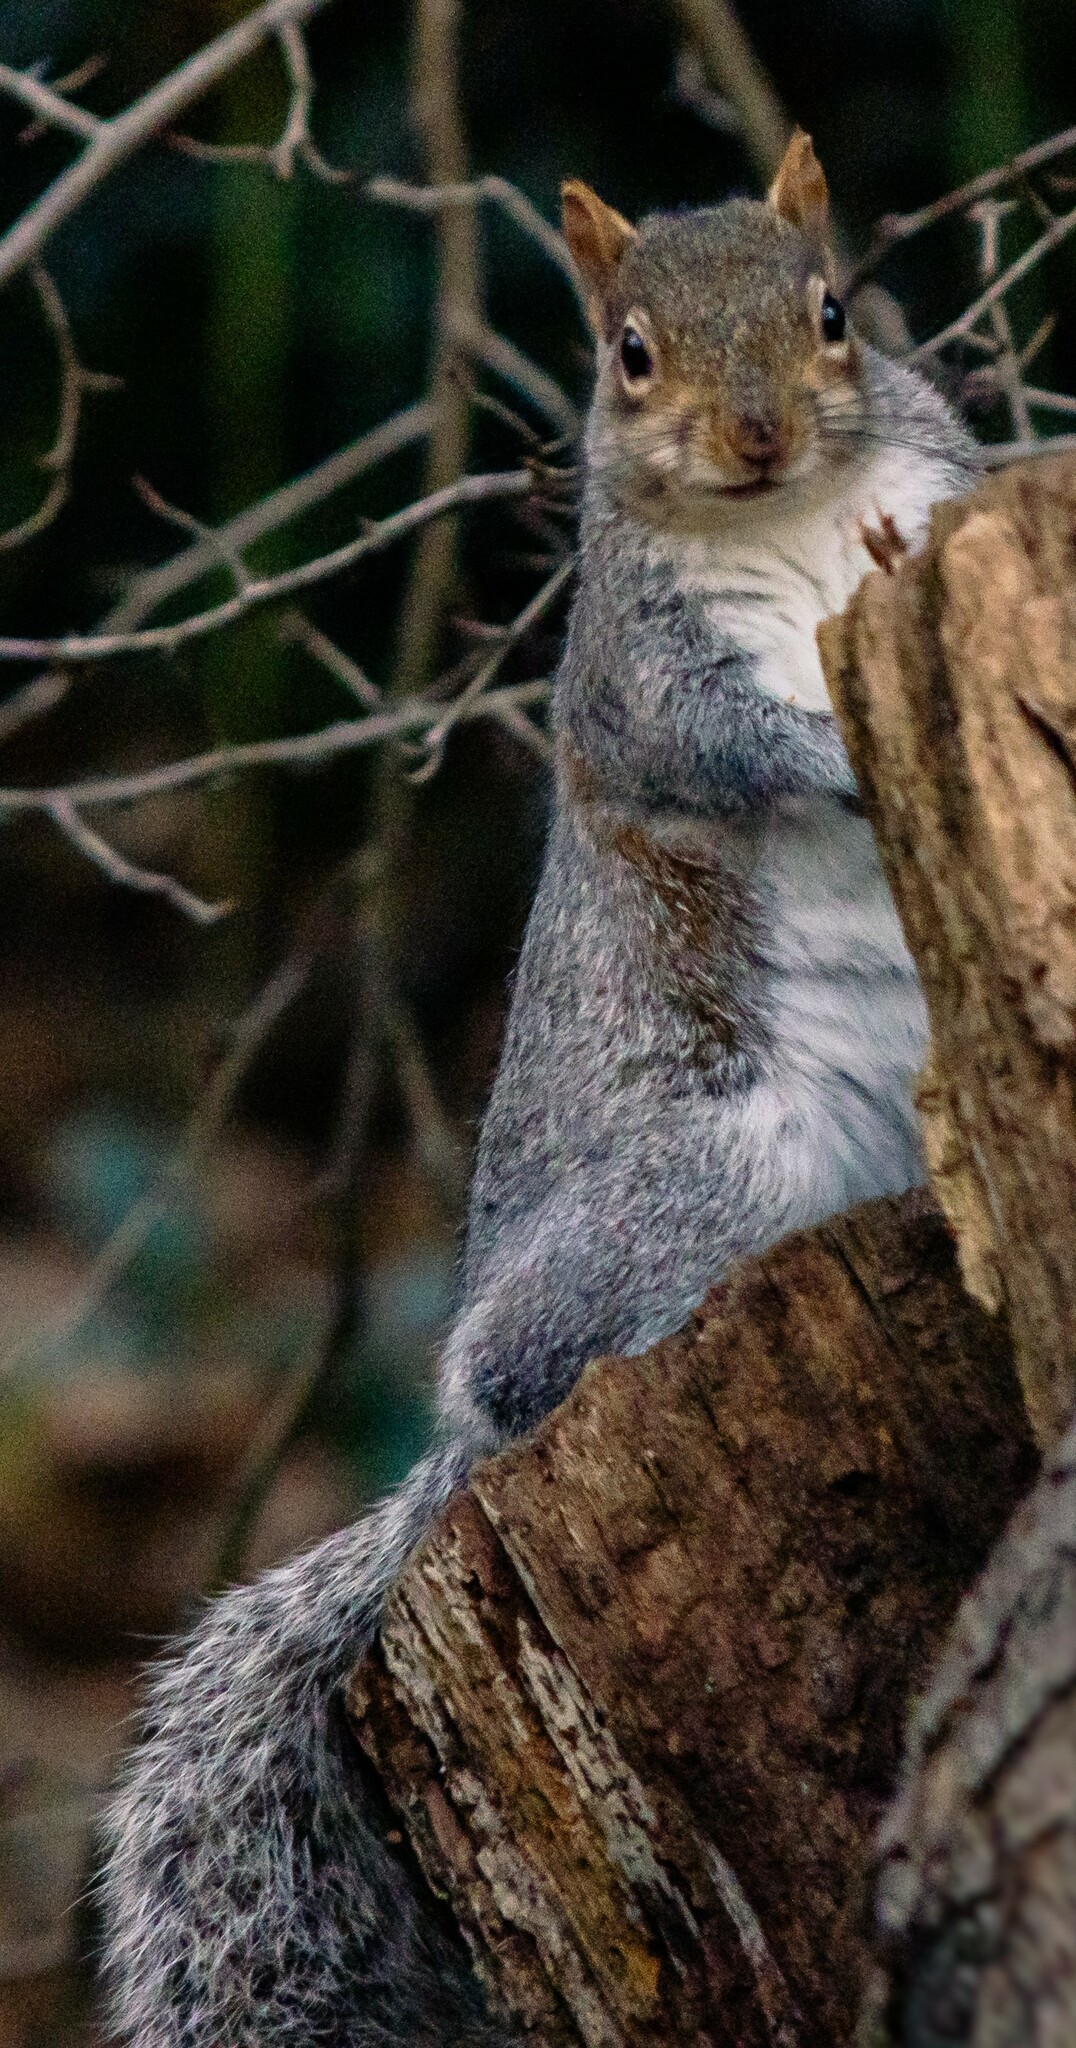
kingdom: Animalia
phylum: Chordata
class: Mammalia
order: Rodentia
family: Sciuridae
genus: Sciurus
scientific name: Sciurus carolinensis
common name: Eastern gray squirrel
